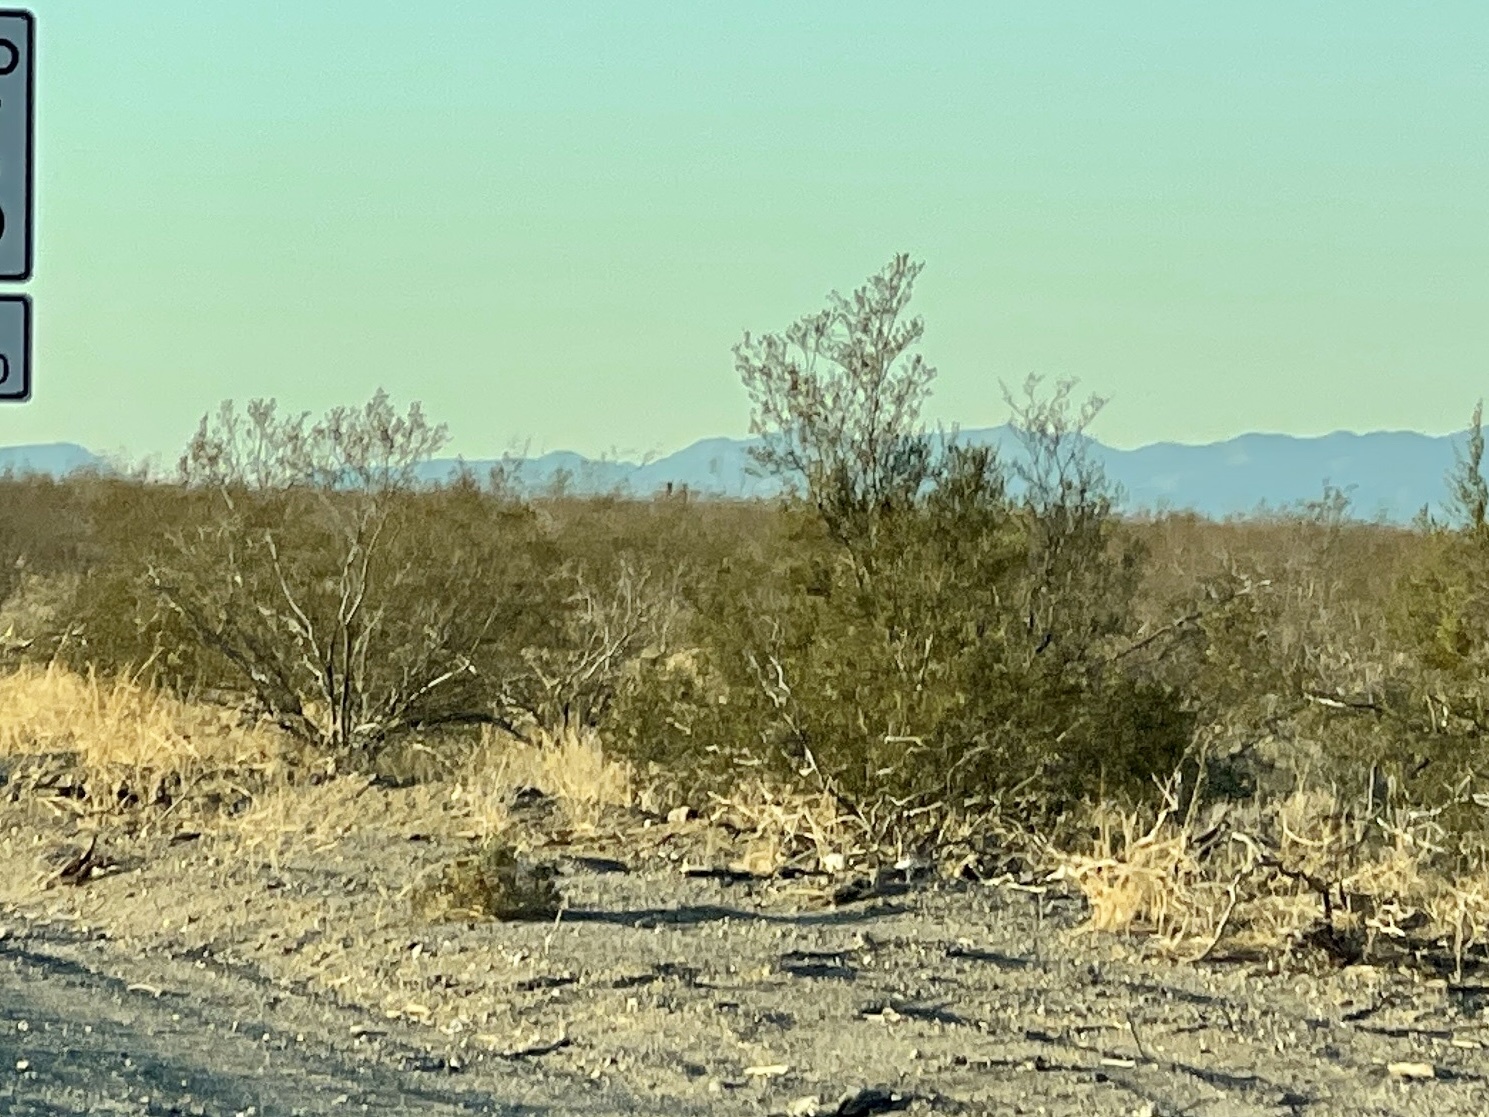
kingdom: Plantae
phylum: Tracheophyta
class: Magnoliopsida
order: Zygophyllales
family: Zygophyllaceae
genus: Larrea
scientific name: Larrea tridentata
